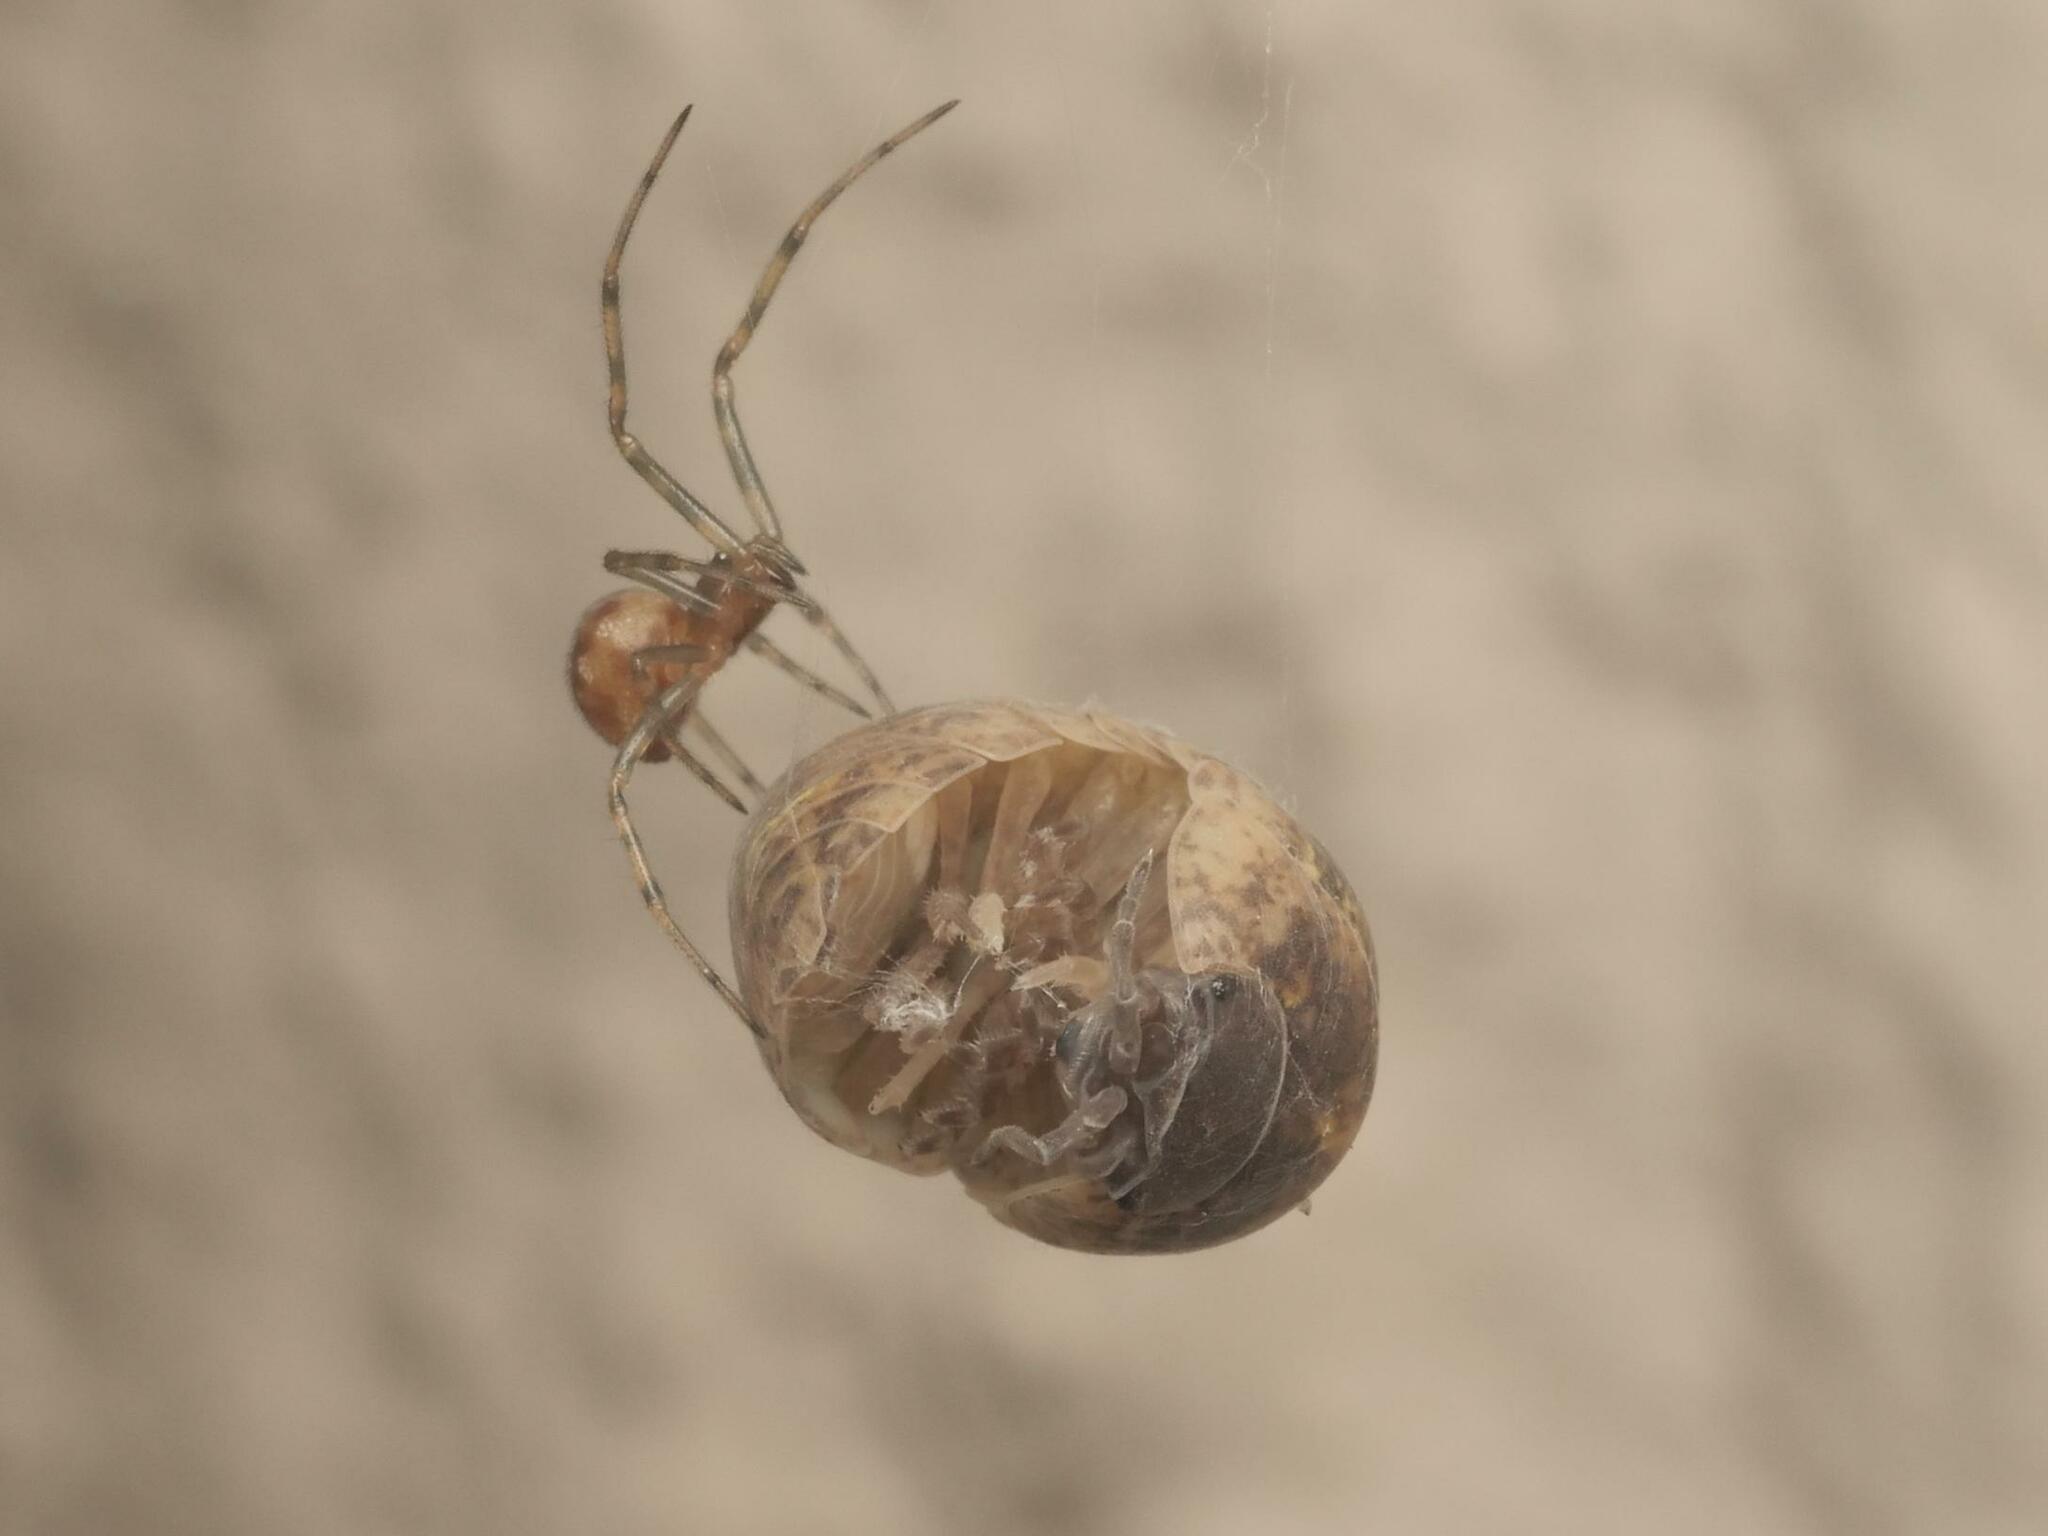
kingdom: Animalia
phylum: Arthropoda
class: Malacostraca
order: Isopoda
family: Armadillidiidae
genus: Armadillidium
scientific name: Armadillidium vulgare
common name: Common pill woodlouse
